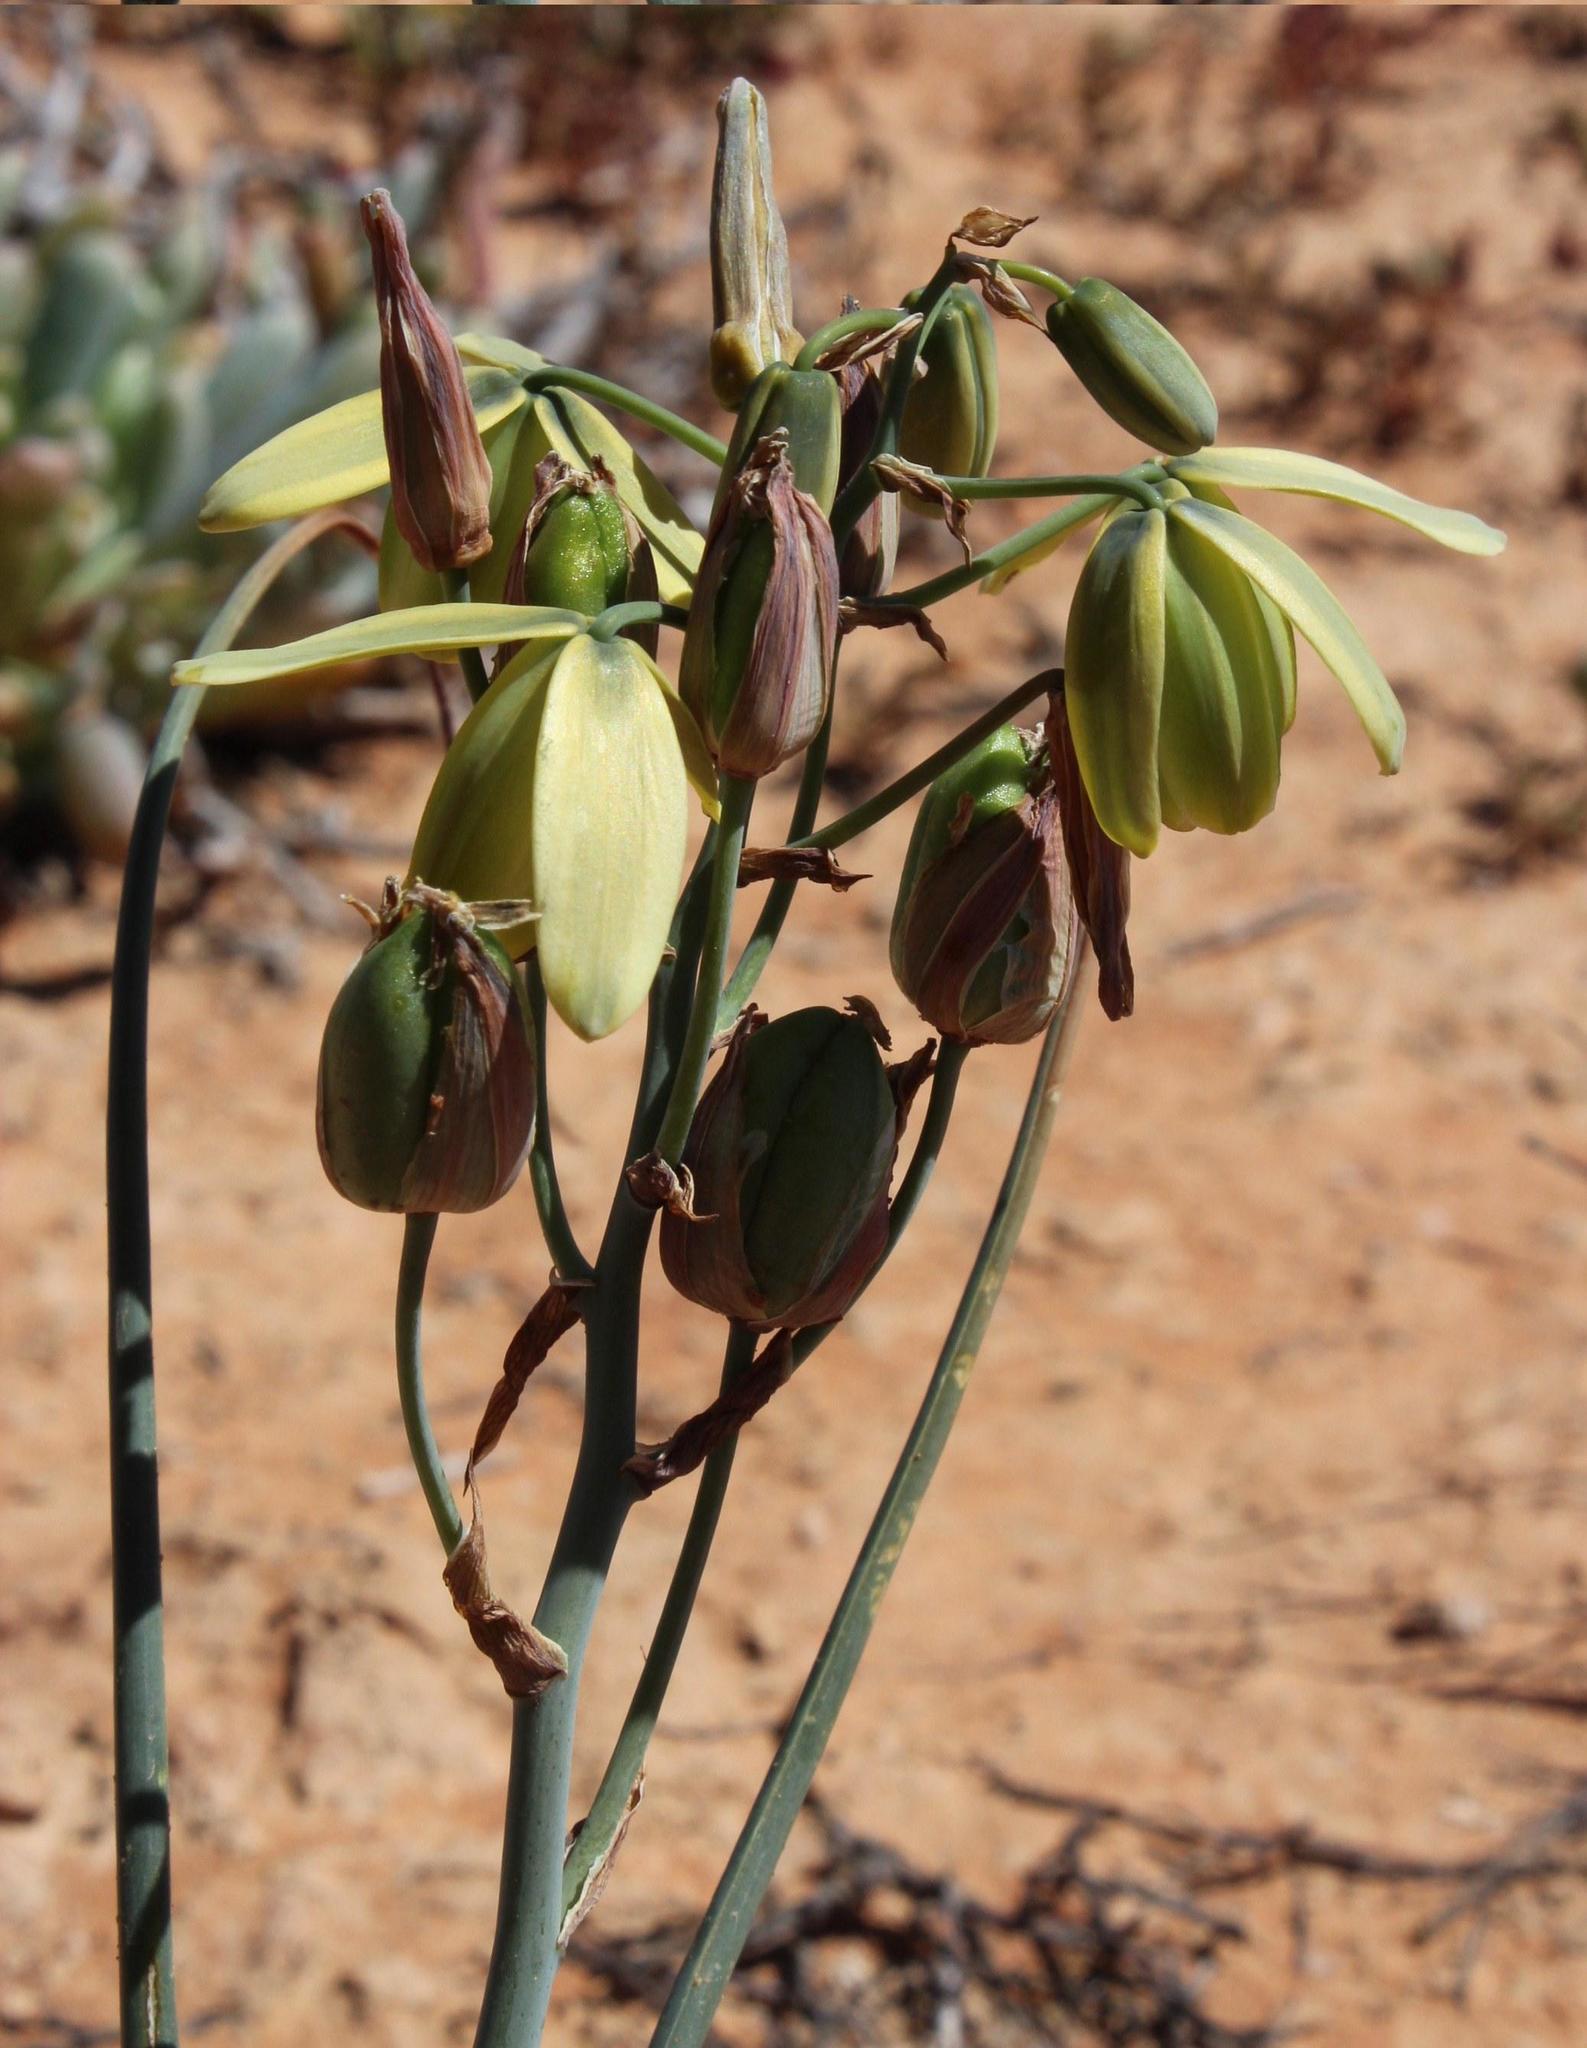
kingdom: Plantae
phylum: Tracheophyta
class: Liliopsida
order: Asparagales
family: Asparagaceae
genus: Albuca
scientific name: Albuca cooperi
